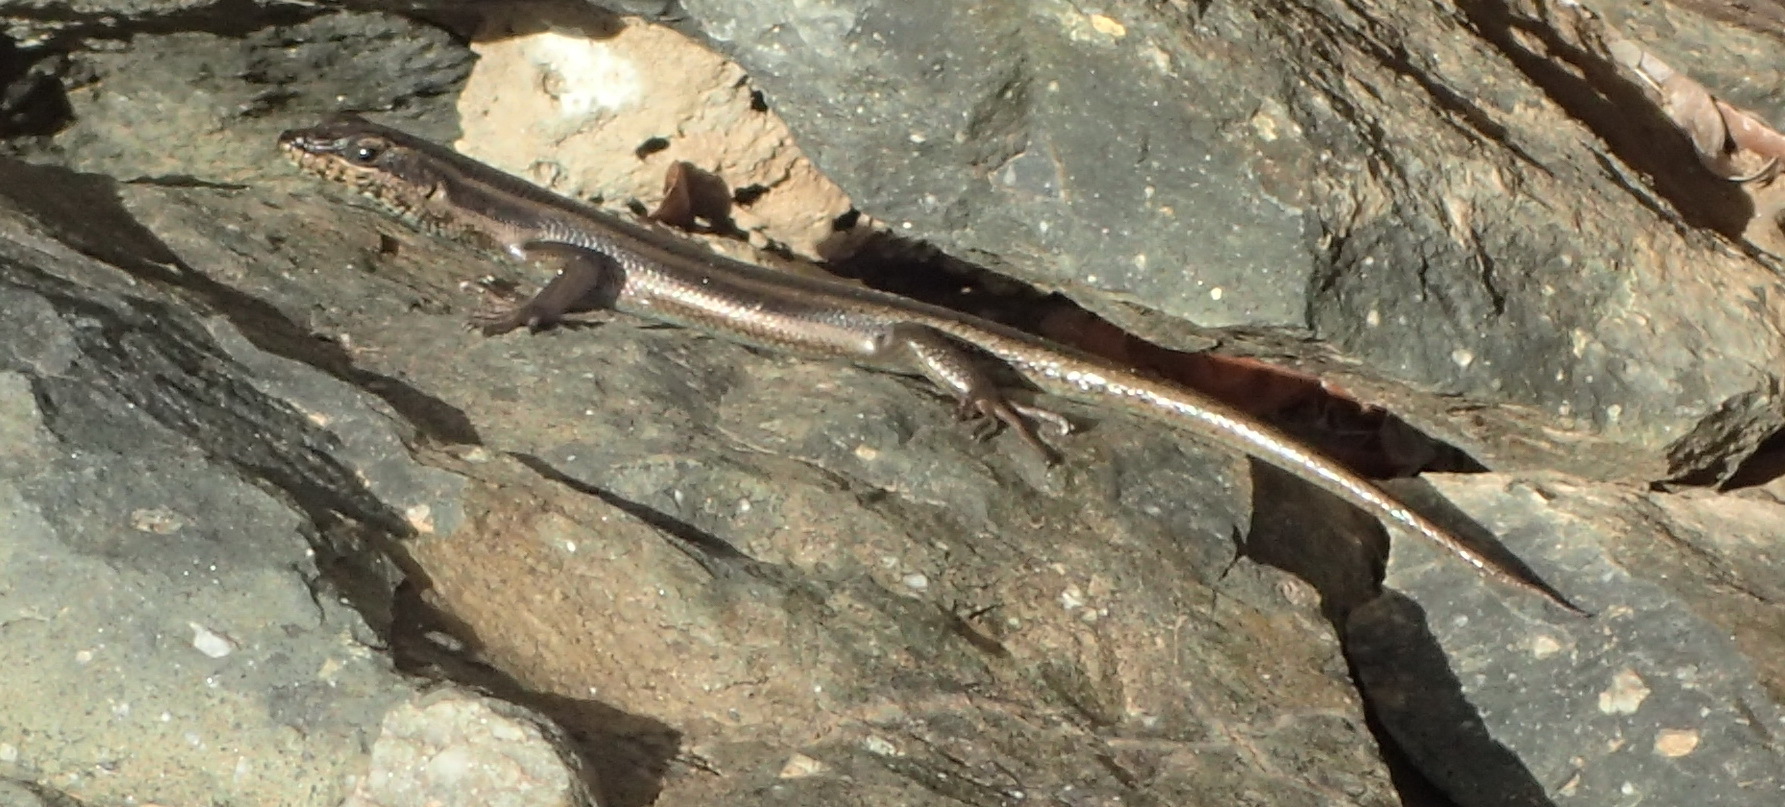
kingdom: Animalia
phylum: Chordata
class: Squamata
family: Scincidae
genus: Trachylepis
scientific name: Trachylepis sulcata
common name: Western rock skink
